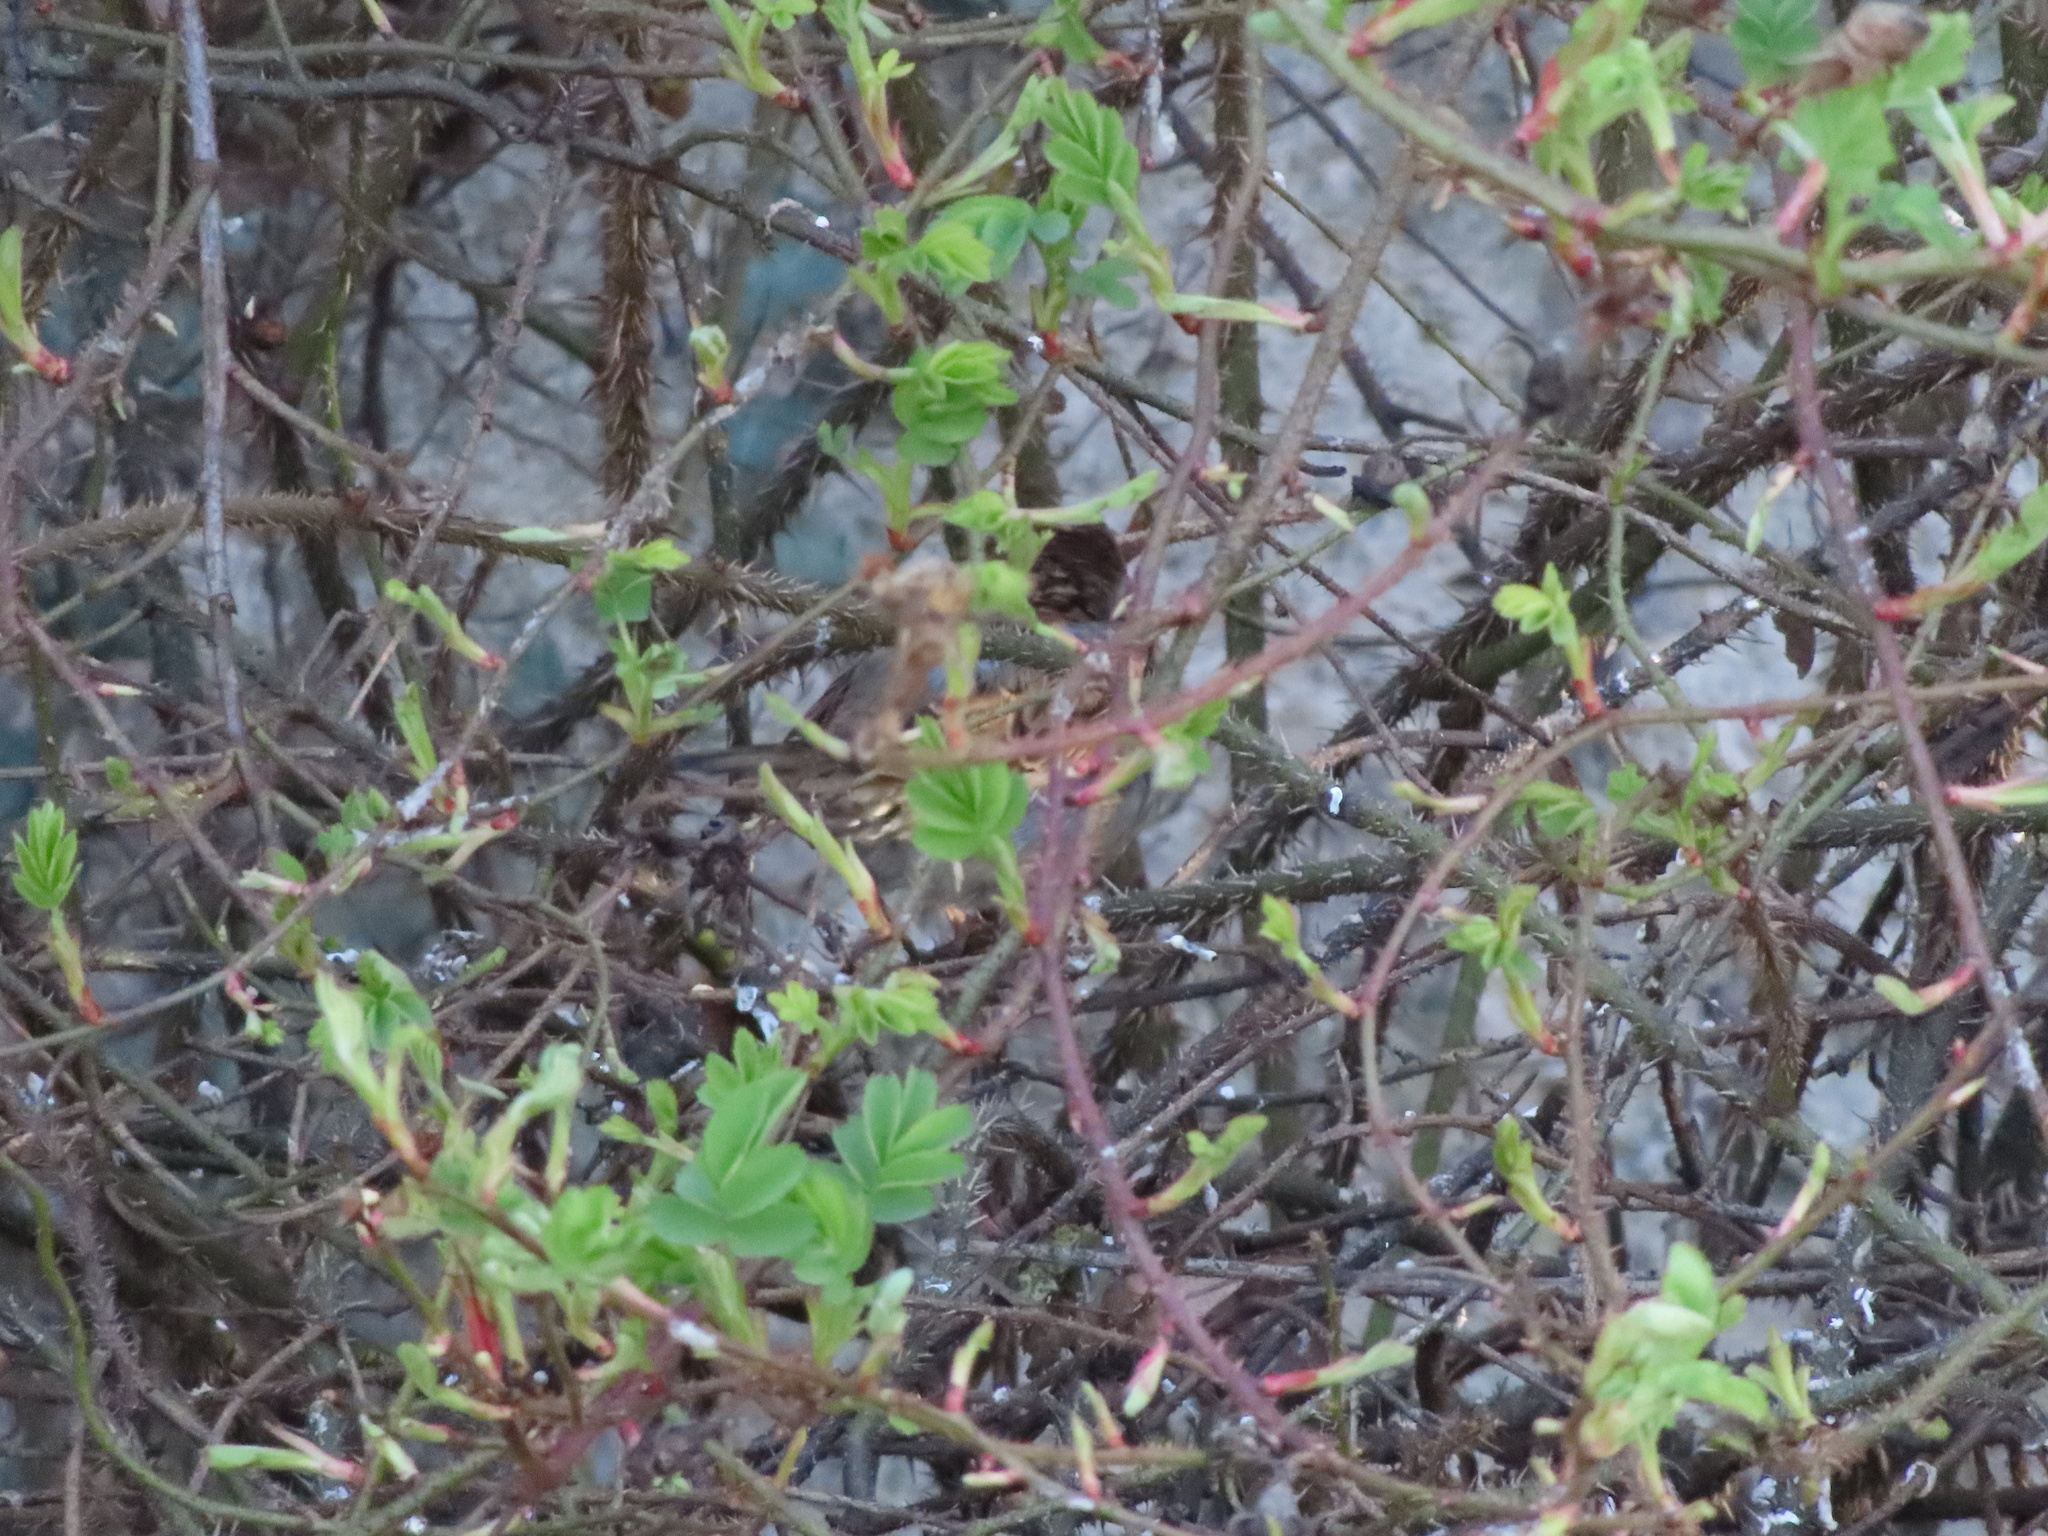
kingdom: Animalia
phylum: Chordata
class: Aves
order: Passeriformes
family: Passeridae
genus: Passer
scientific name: Passer domesticus
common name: House sparrow
